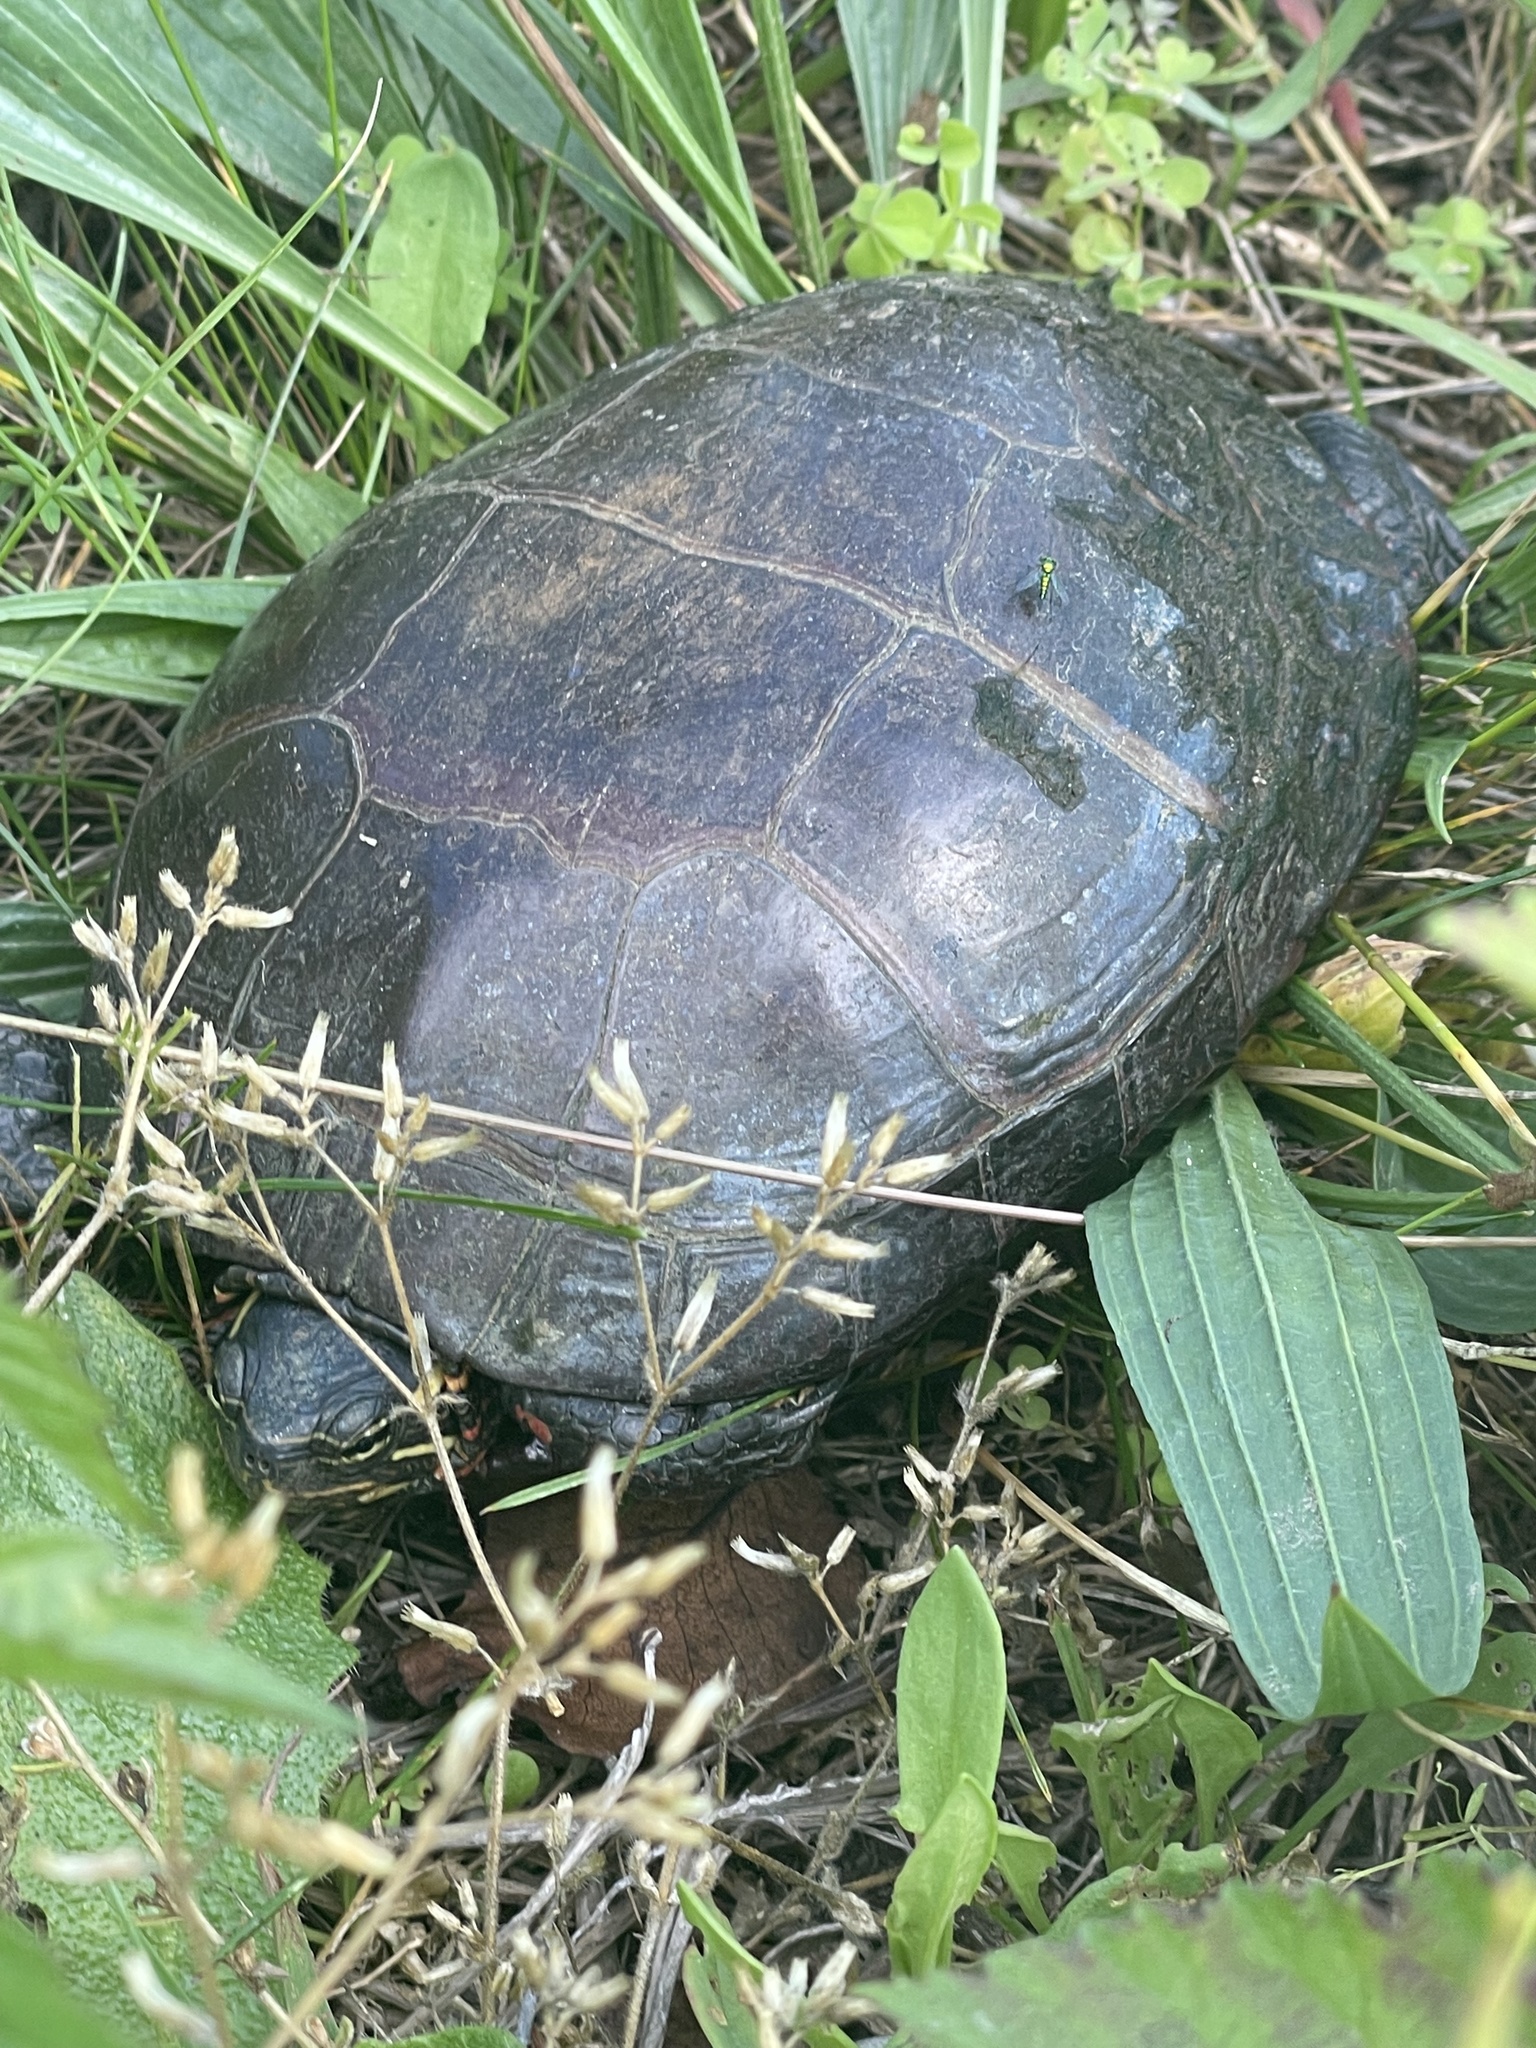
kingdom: Animalia
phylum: Chordata
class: Testudines
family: Emydidae
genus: Chrysemys
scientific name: Chrysemys picta
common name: Painted turtle
